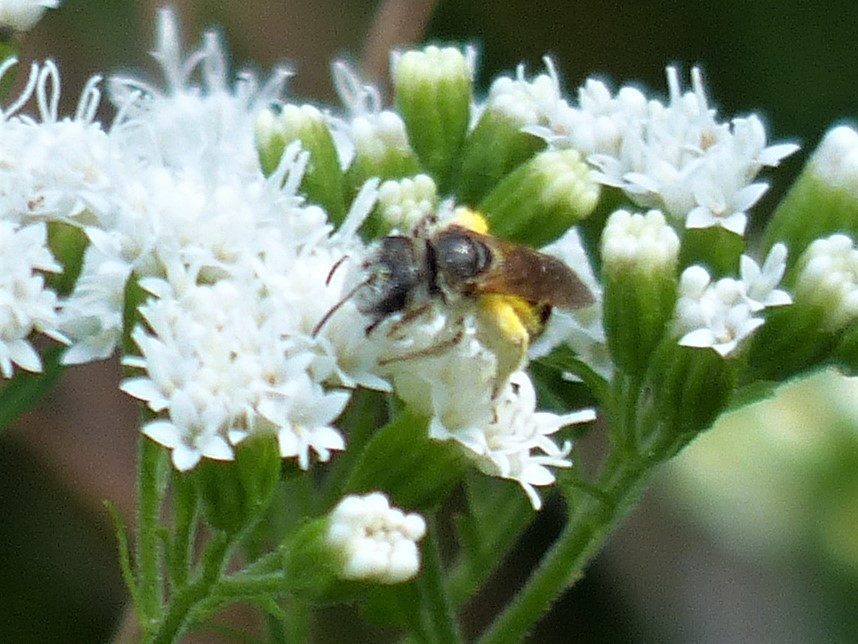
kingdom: Animalia
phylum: Arthropoda
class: Insecta
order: Hymenoptera
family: Halictidae
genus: Halictus
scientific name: Halictus ligatus
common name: Ligated furrow bee
